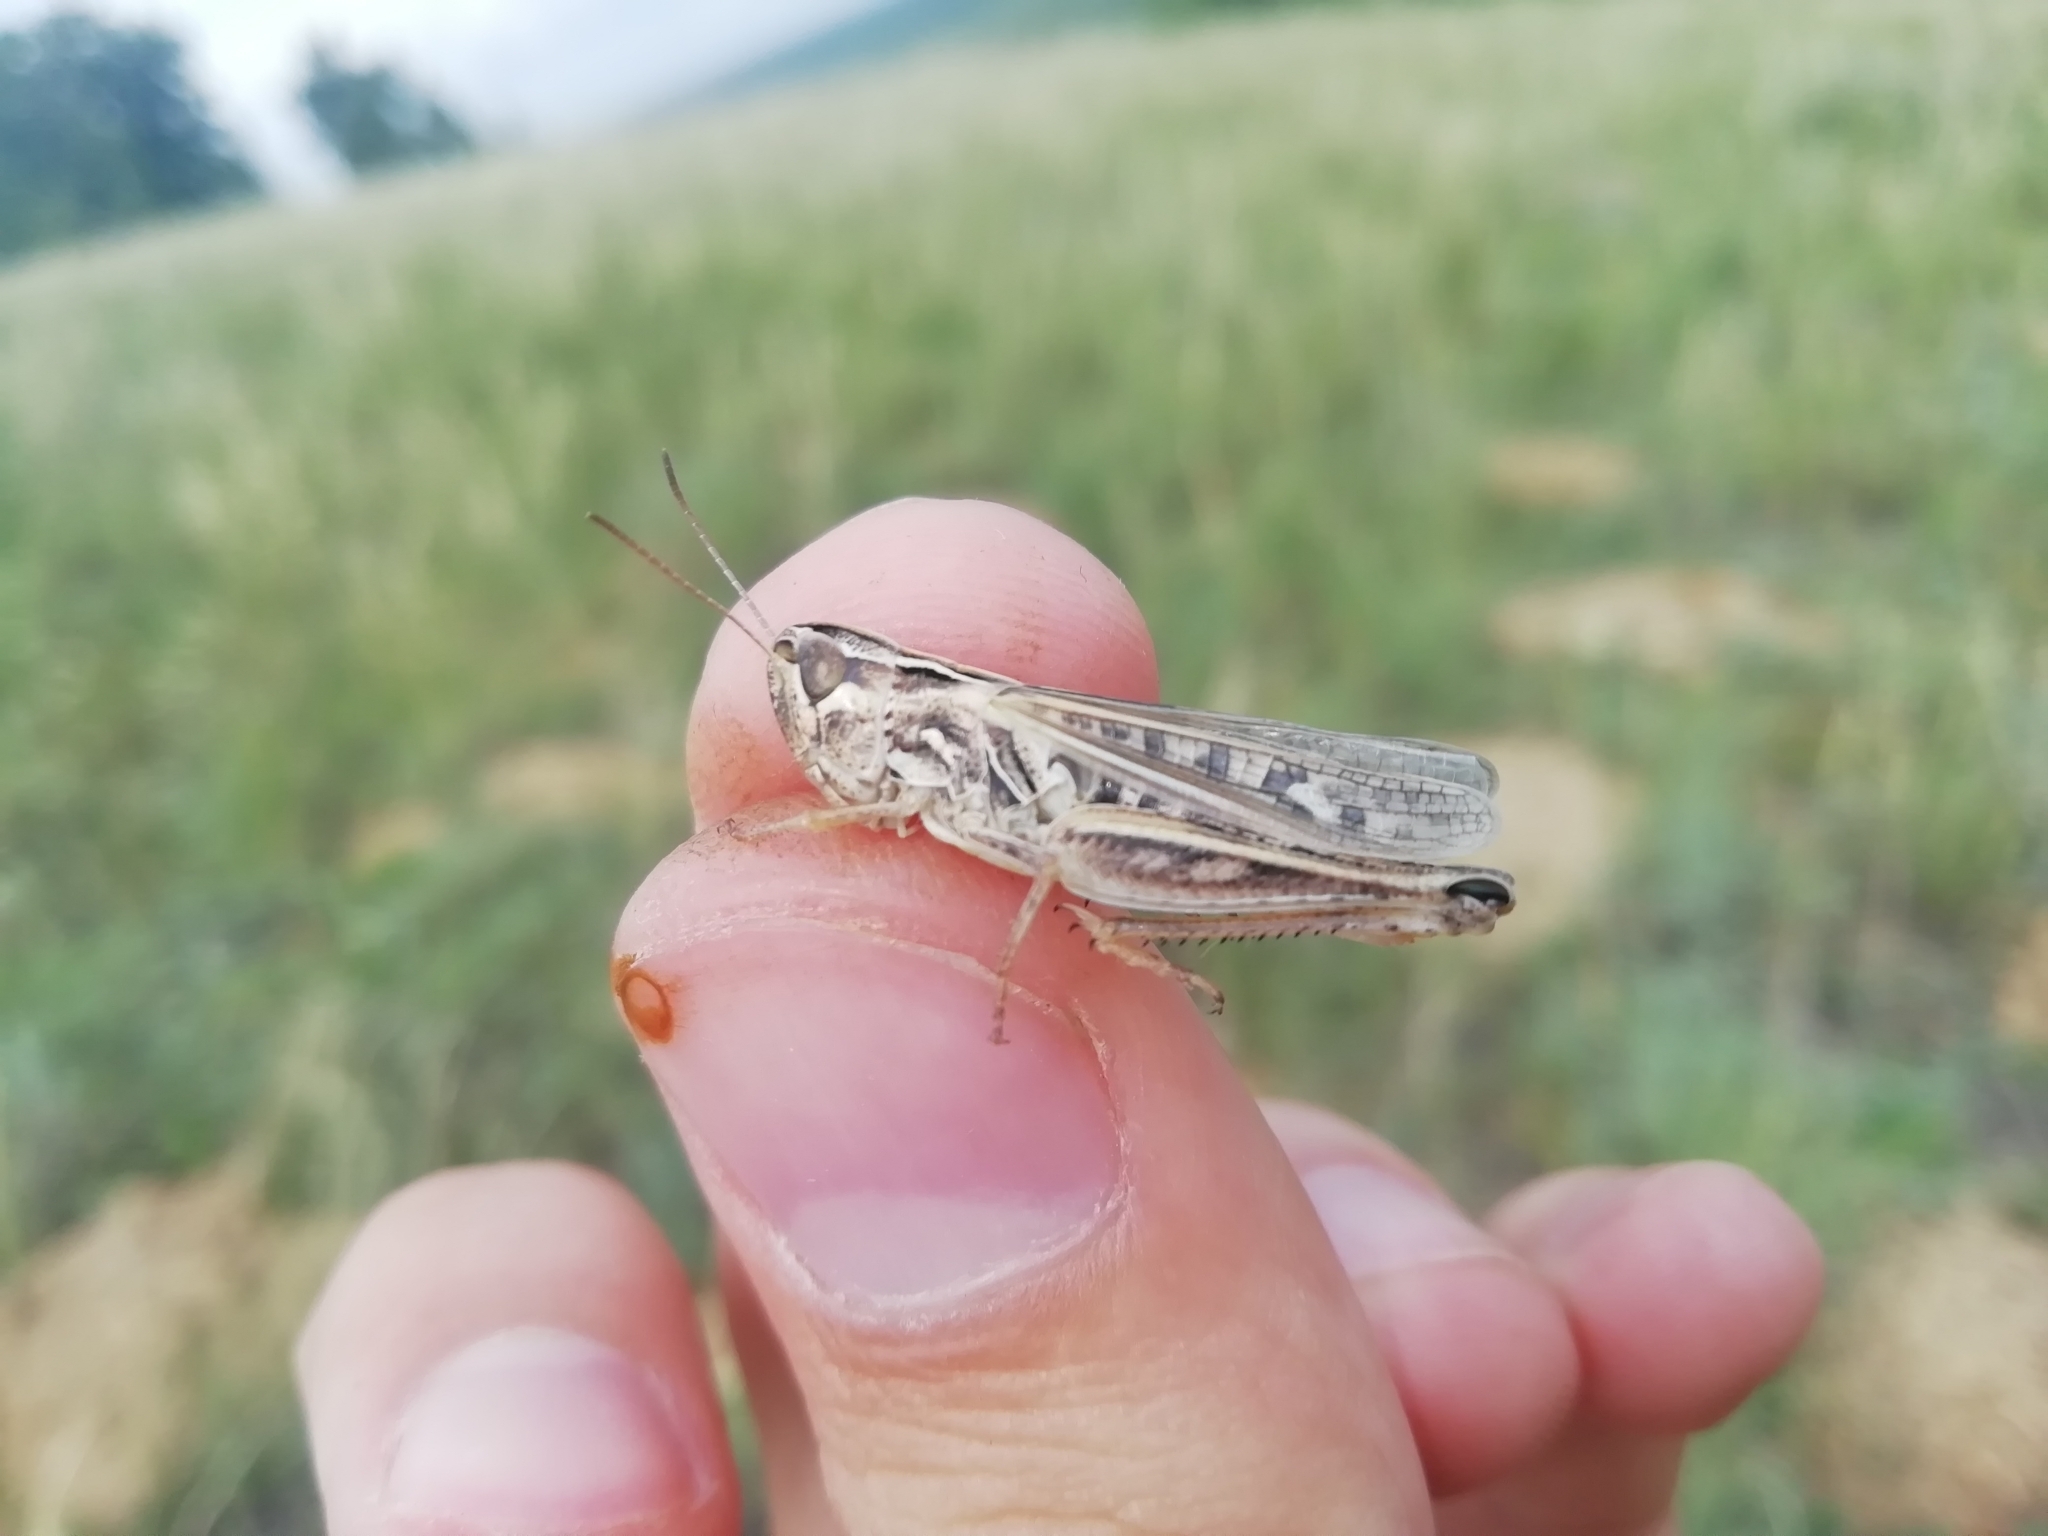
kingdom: Animalia
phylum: Arthropoda
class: Insecta
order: Orthoptera
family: Acrididae
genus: Stenobothrus
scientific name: Stenobothrus eurasius
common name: Eurasian toothed grasshopper
